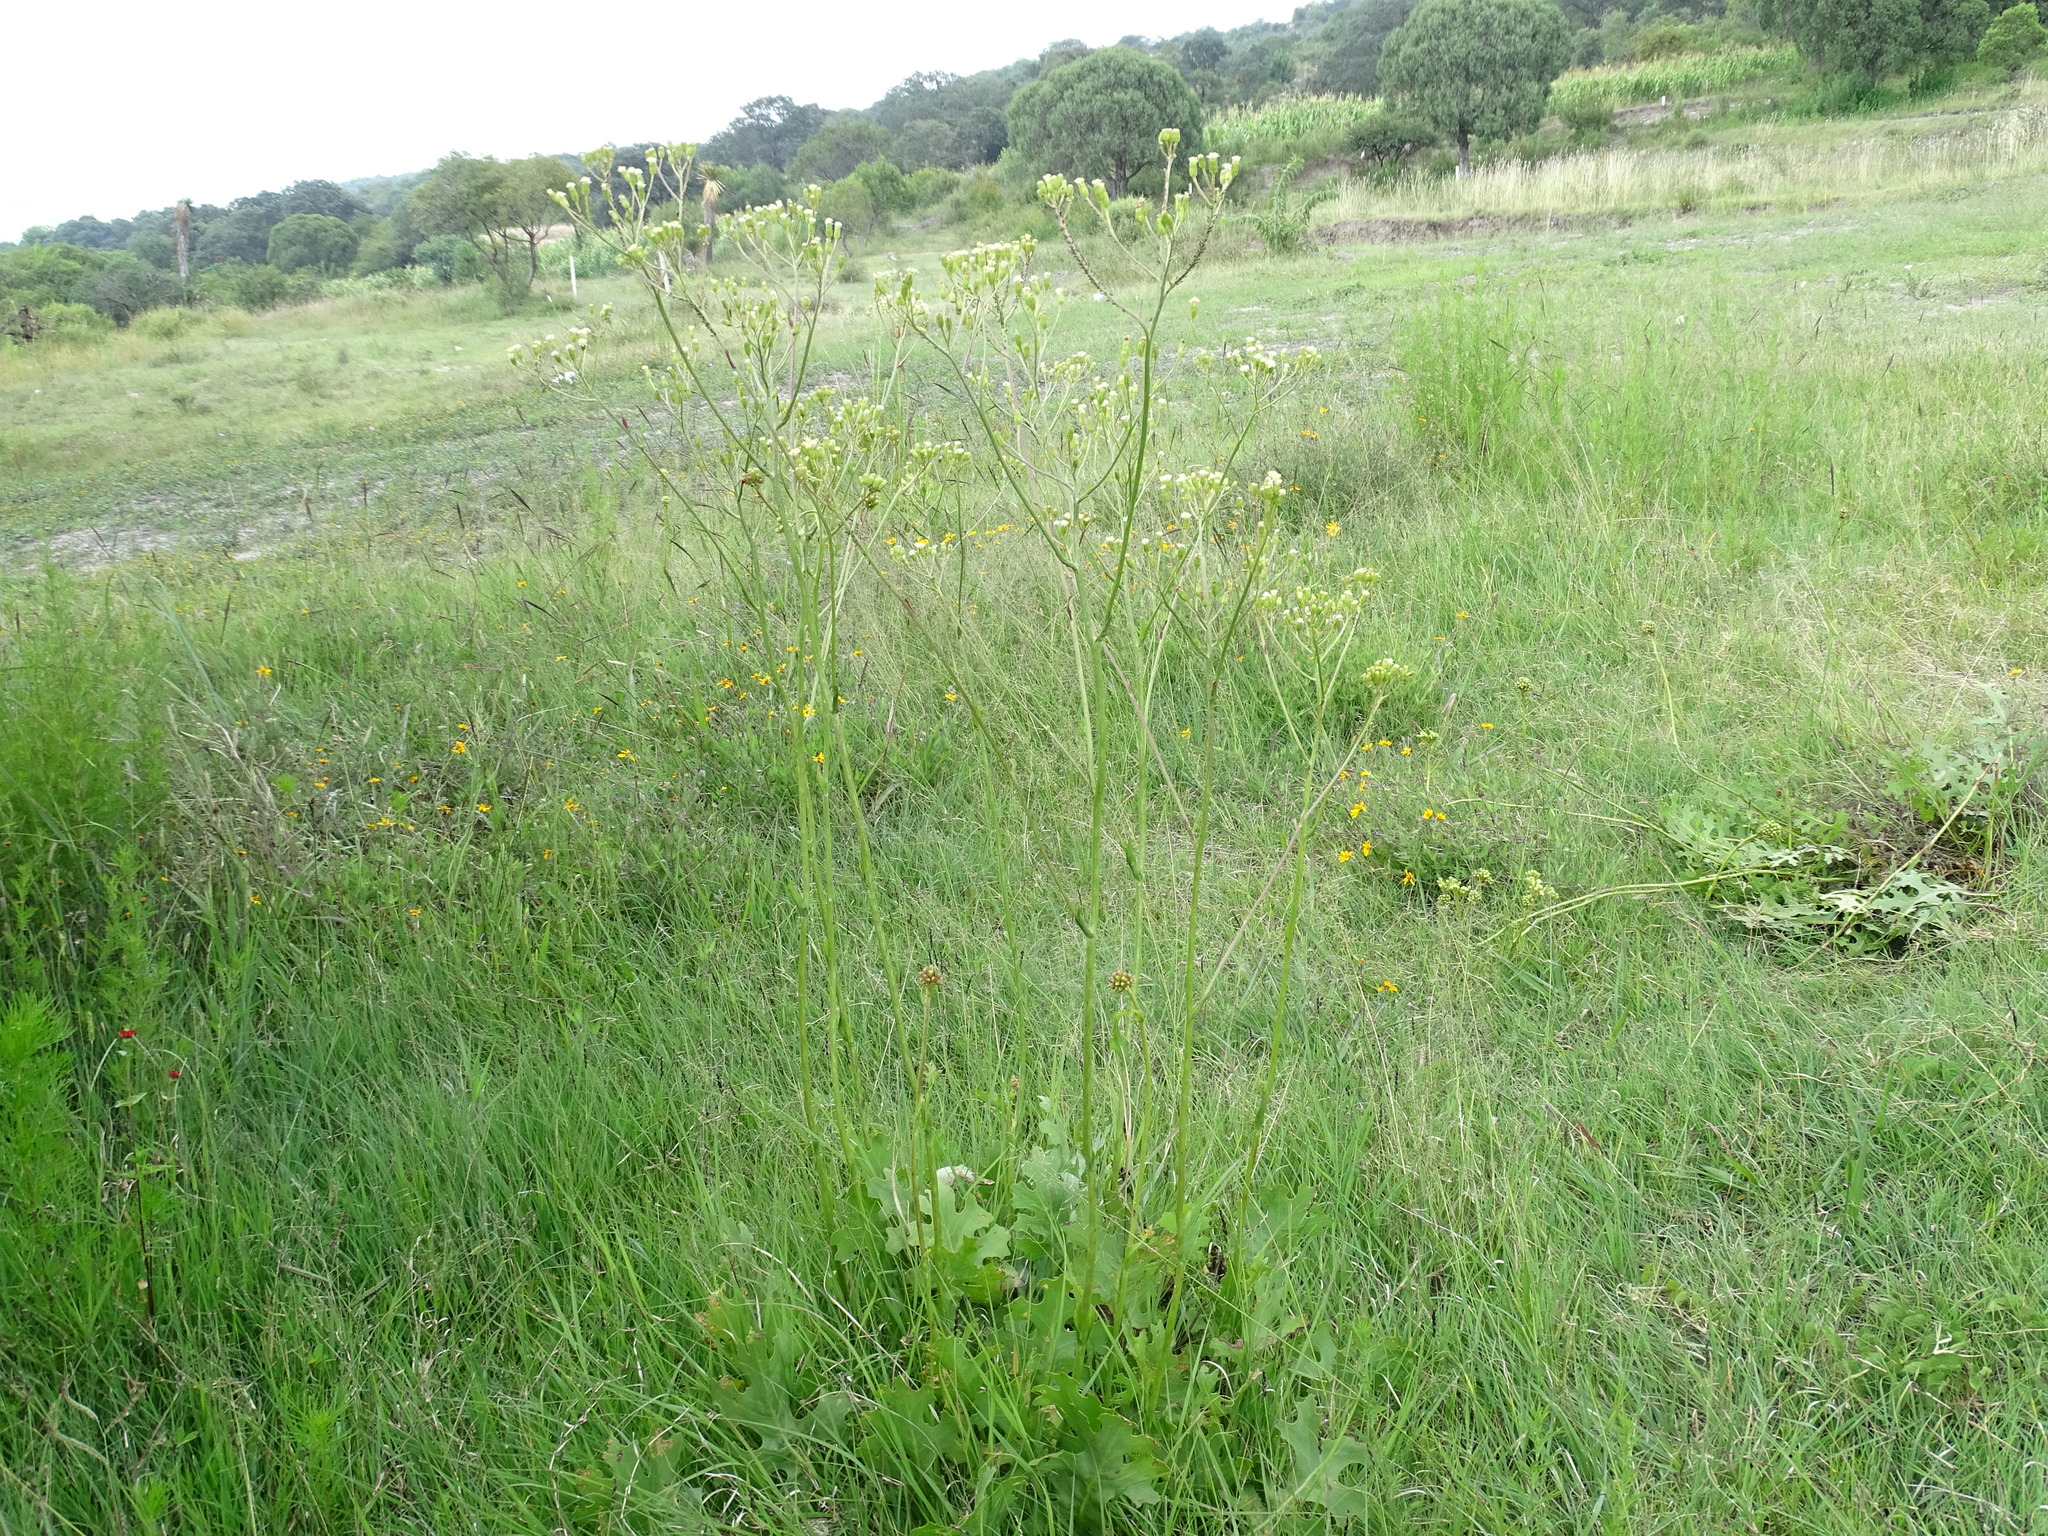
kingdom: Plantae
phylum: Tracheophyta
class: Magnoliopsida
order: Asterales
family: Asteraceae
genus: Psacalium
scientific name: Psacalium sinuatum
